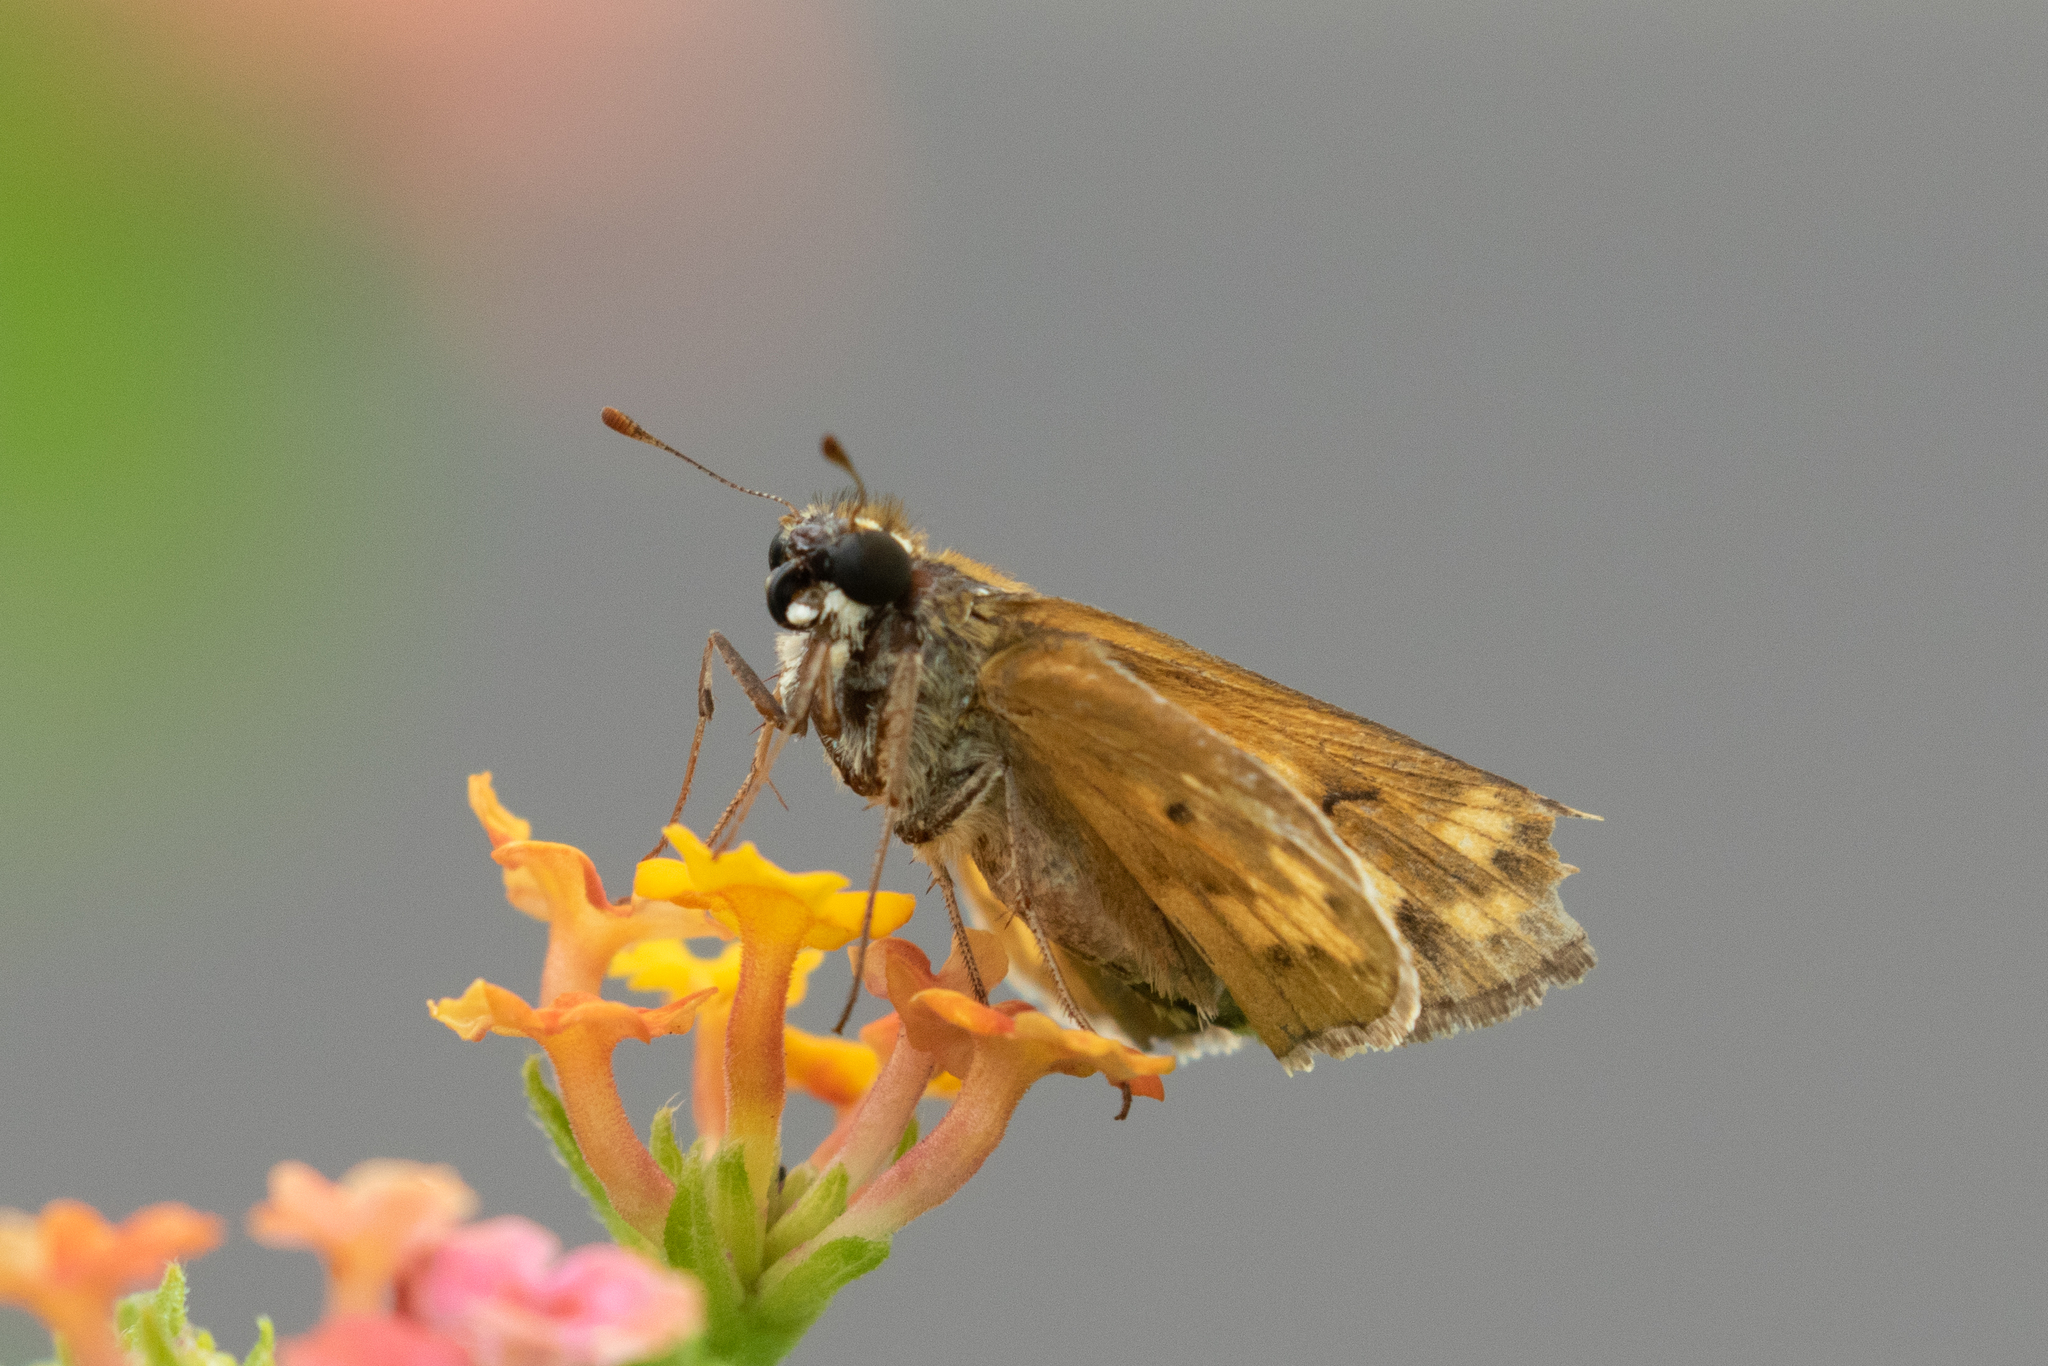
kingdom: Animalia
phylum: Arthropoda
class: Insecta
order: Lepidoptera
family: Hesperiidae
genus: Hylephila
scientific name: Hylephila phyleus
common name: Fiery skipper
